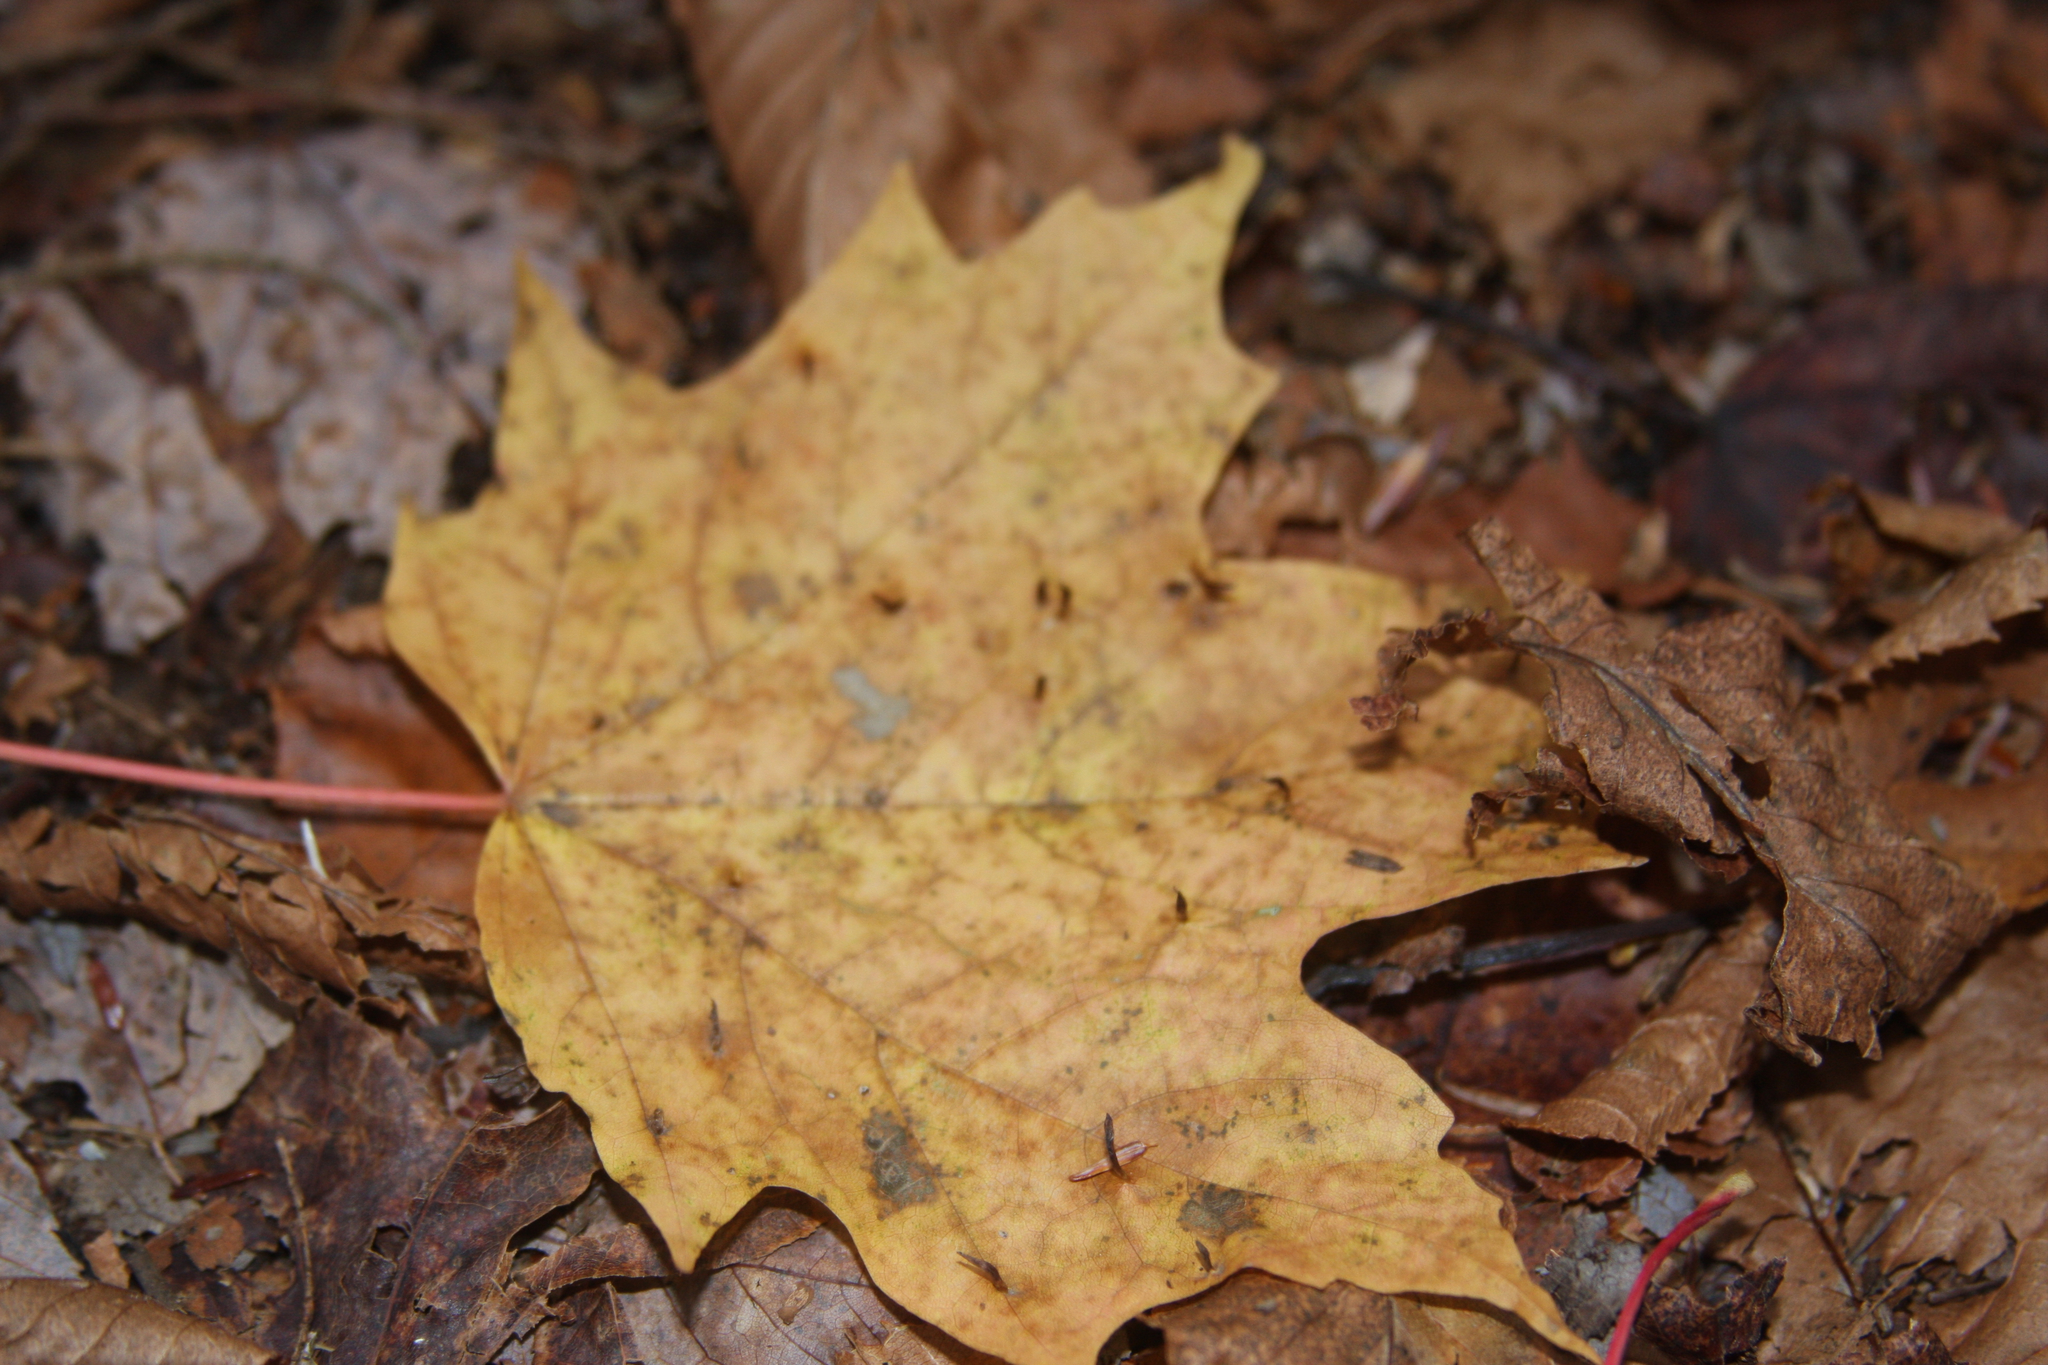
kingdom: Animalia
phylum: Arthropoda
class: Arachnida
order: Trombidiformes
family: Eriophyidae
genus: Vasates
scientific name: Vasates aceriscrumena
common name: Maple spindle gall mite
